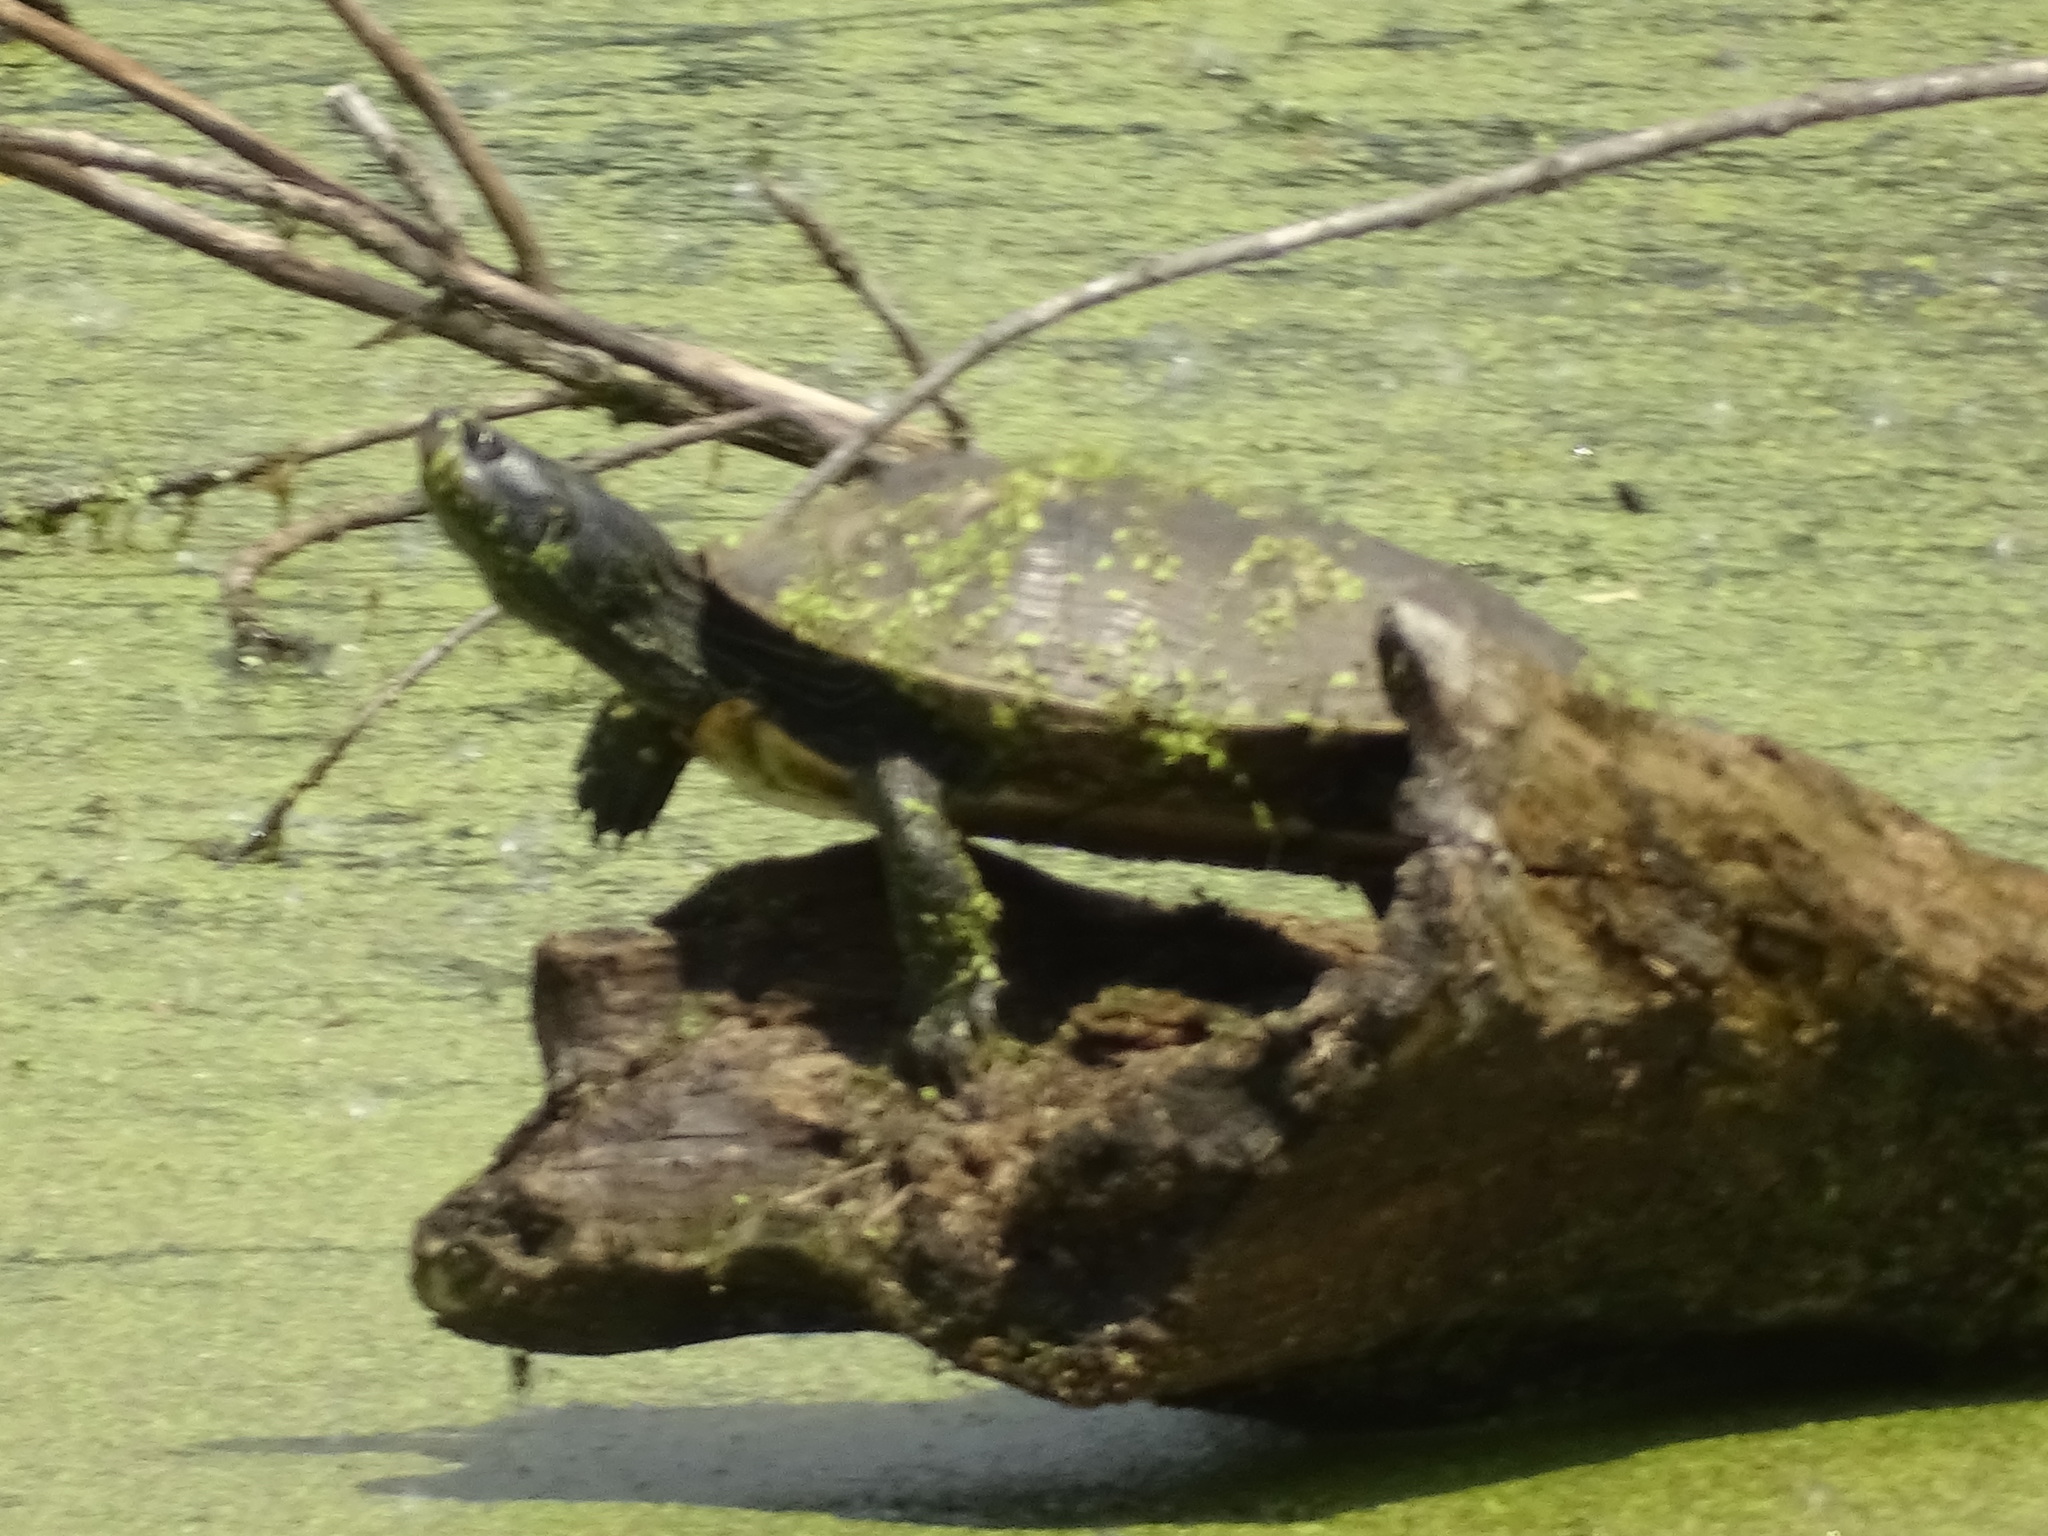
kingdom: Animalia
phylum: Chordata
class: Testudines
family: Emydidae
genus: Graptemys
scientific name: Graptemys geographica
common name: Common map turtle
